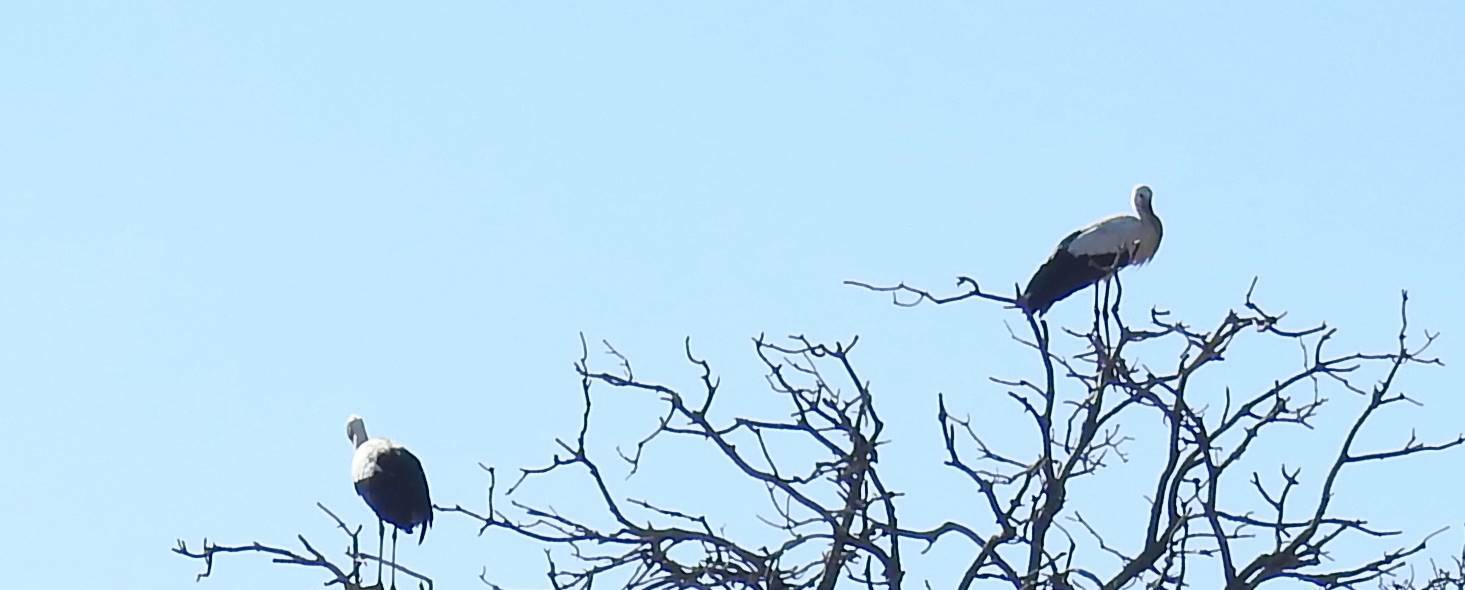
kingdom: Animalia
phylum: Chordata
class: Aves
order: Ciconiiformes
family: Ciconiidae
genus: Ciconia
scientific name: Ciconia ciconia
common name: White stork
